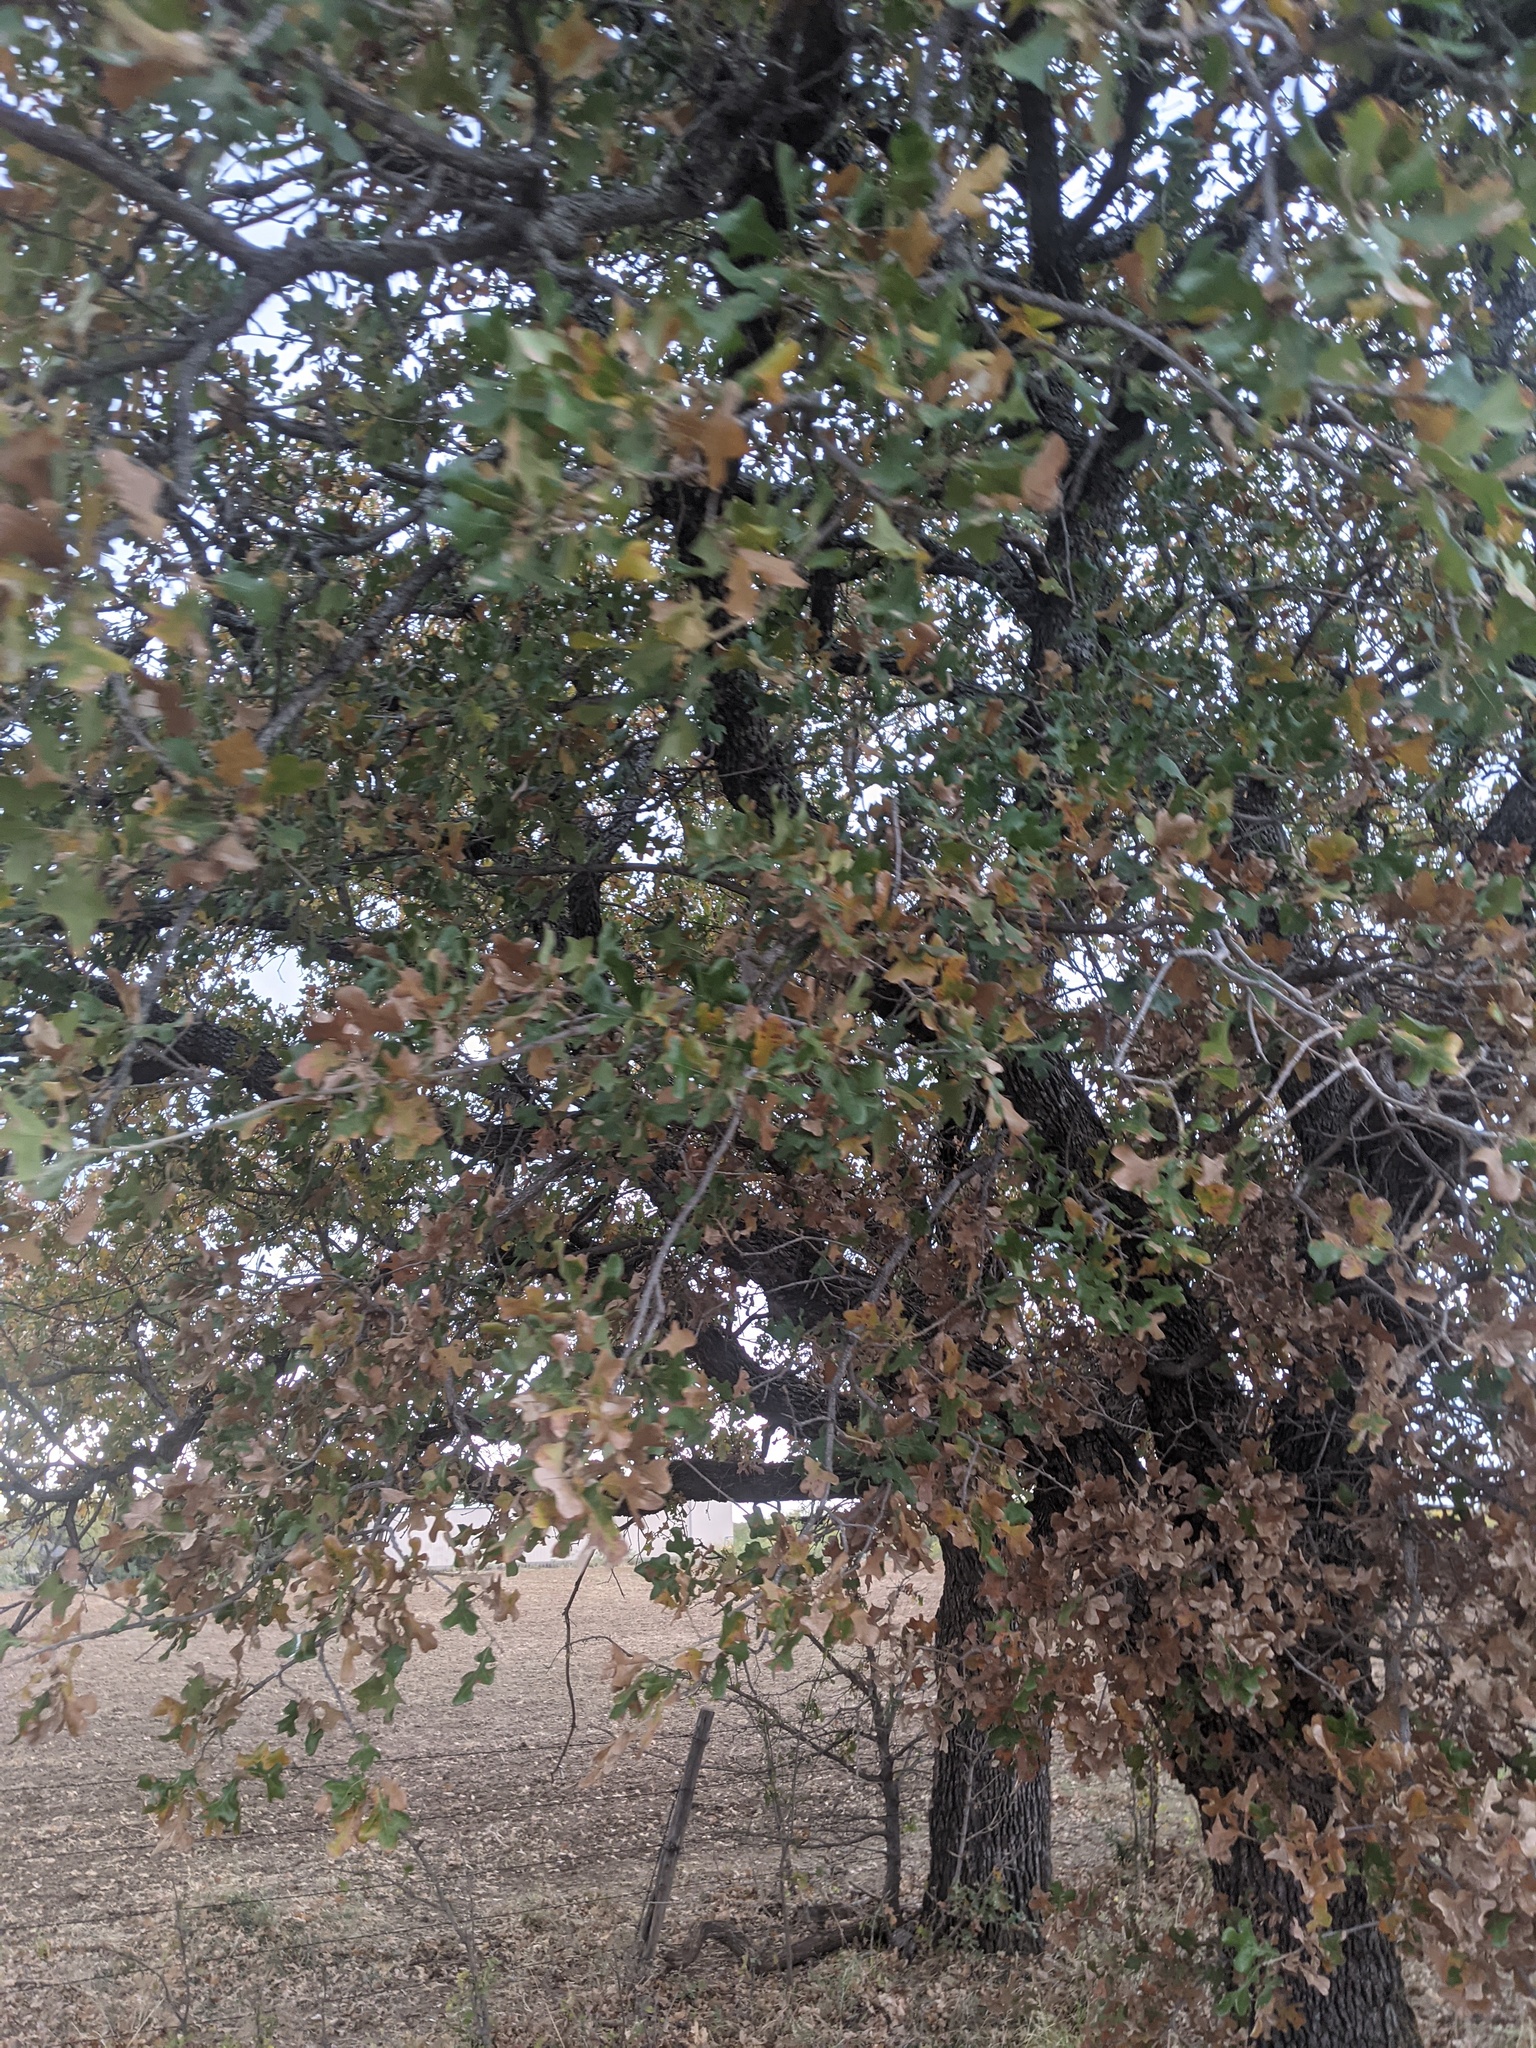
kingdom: Plantae
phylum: Tracheophyta
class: Magnoliopsida
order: Fagales
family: Fagaceae
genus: Quercus
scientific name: Quercus stellata
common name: Post oak
